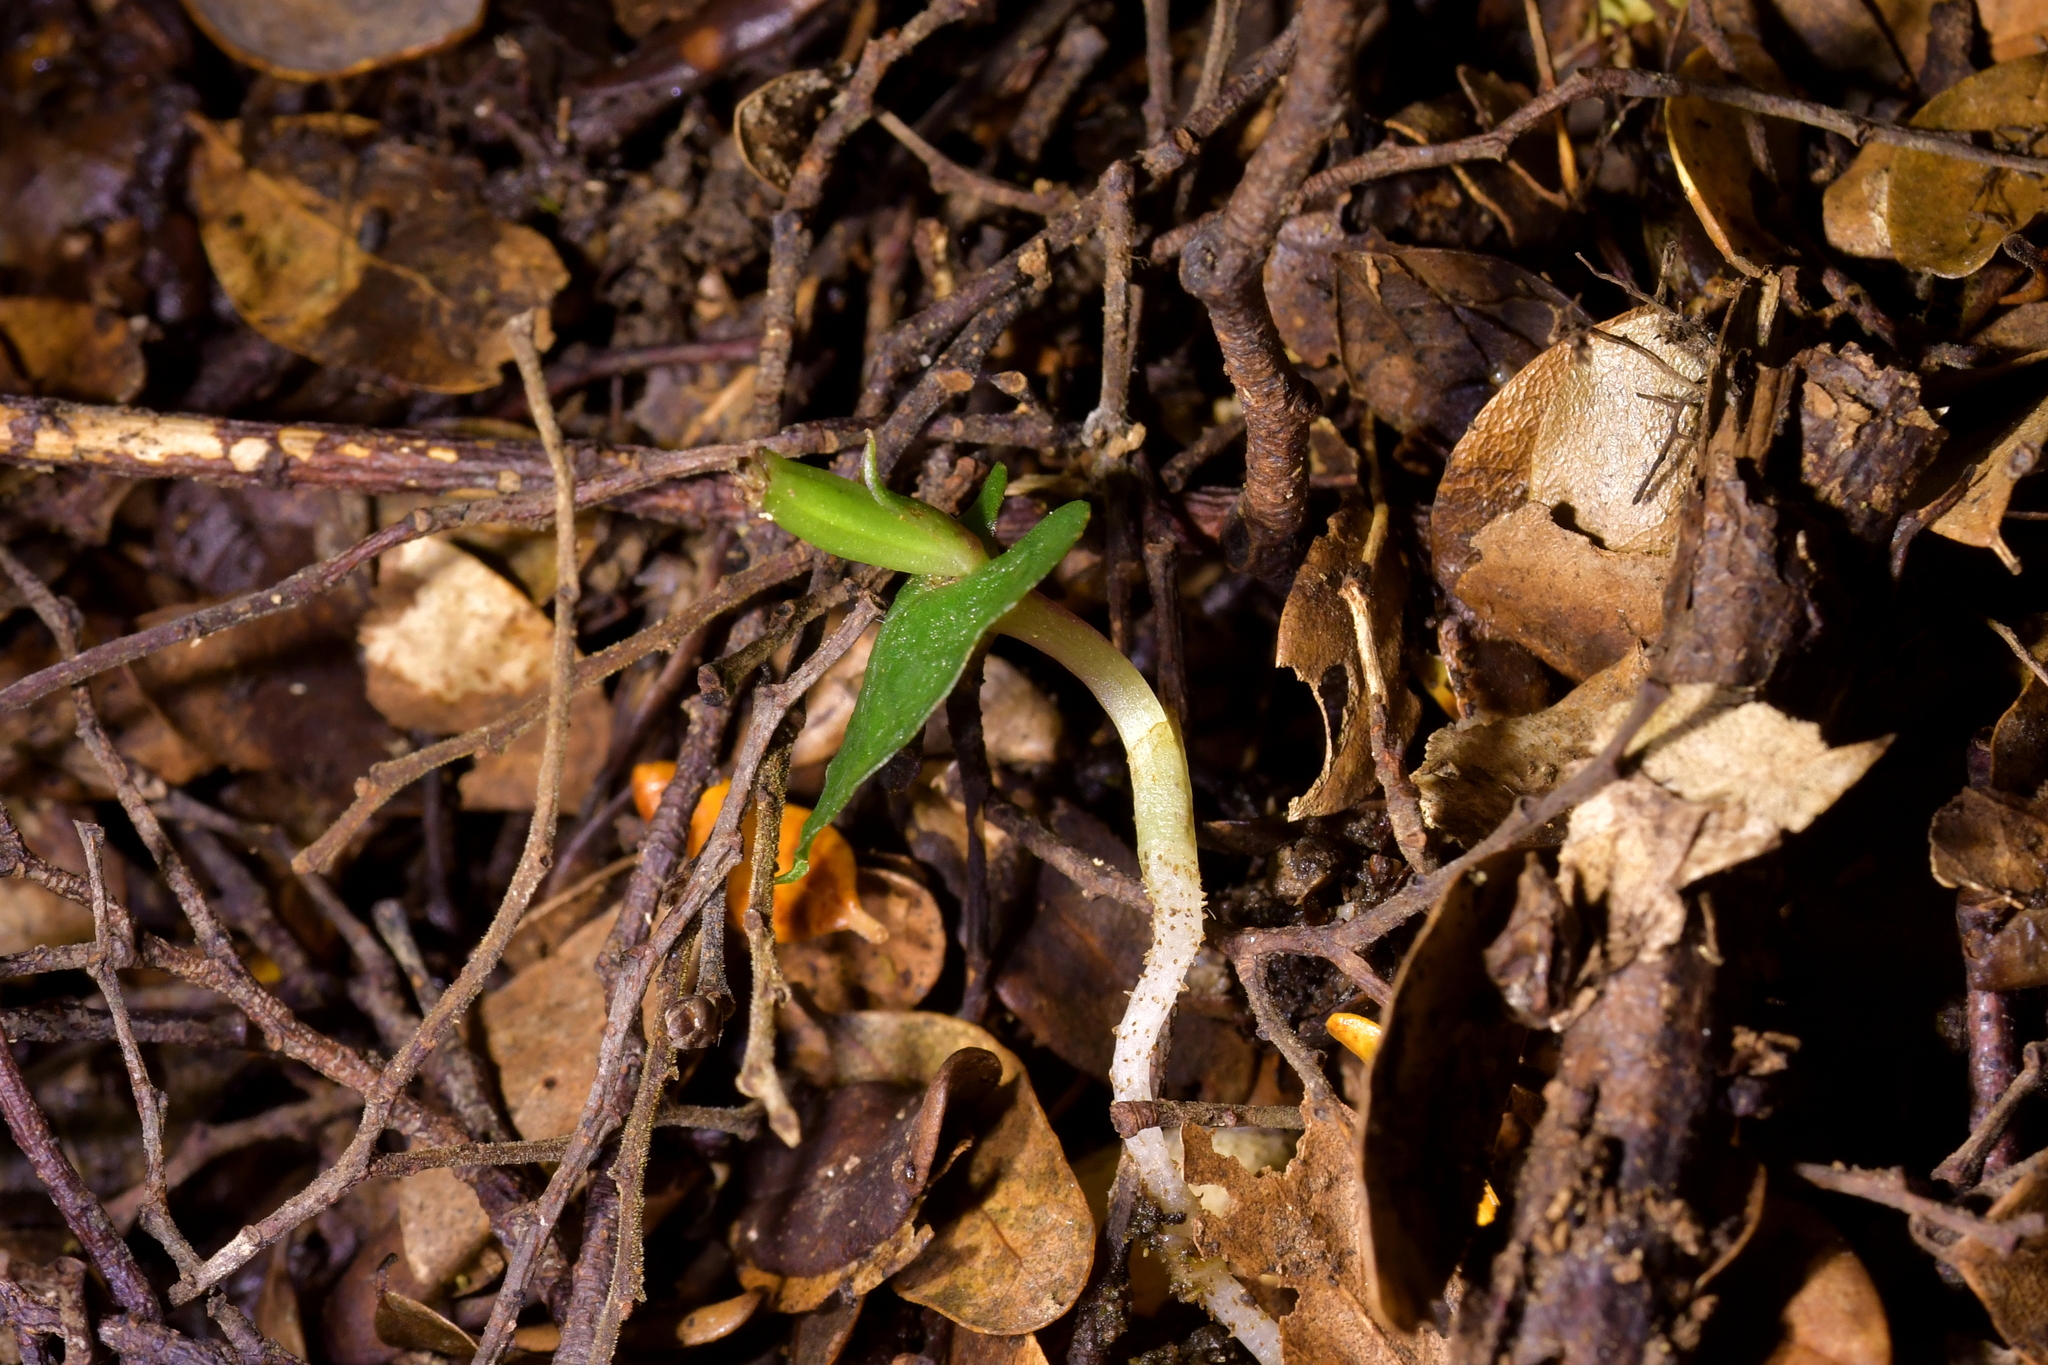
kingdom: Plantae
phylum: Tracheophyta
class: Liliopsida
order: Asparagales
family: Orchidaceae
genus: Corybas
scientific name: Corybas cheesemanii
